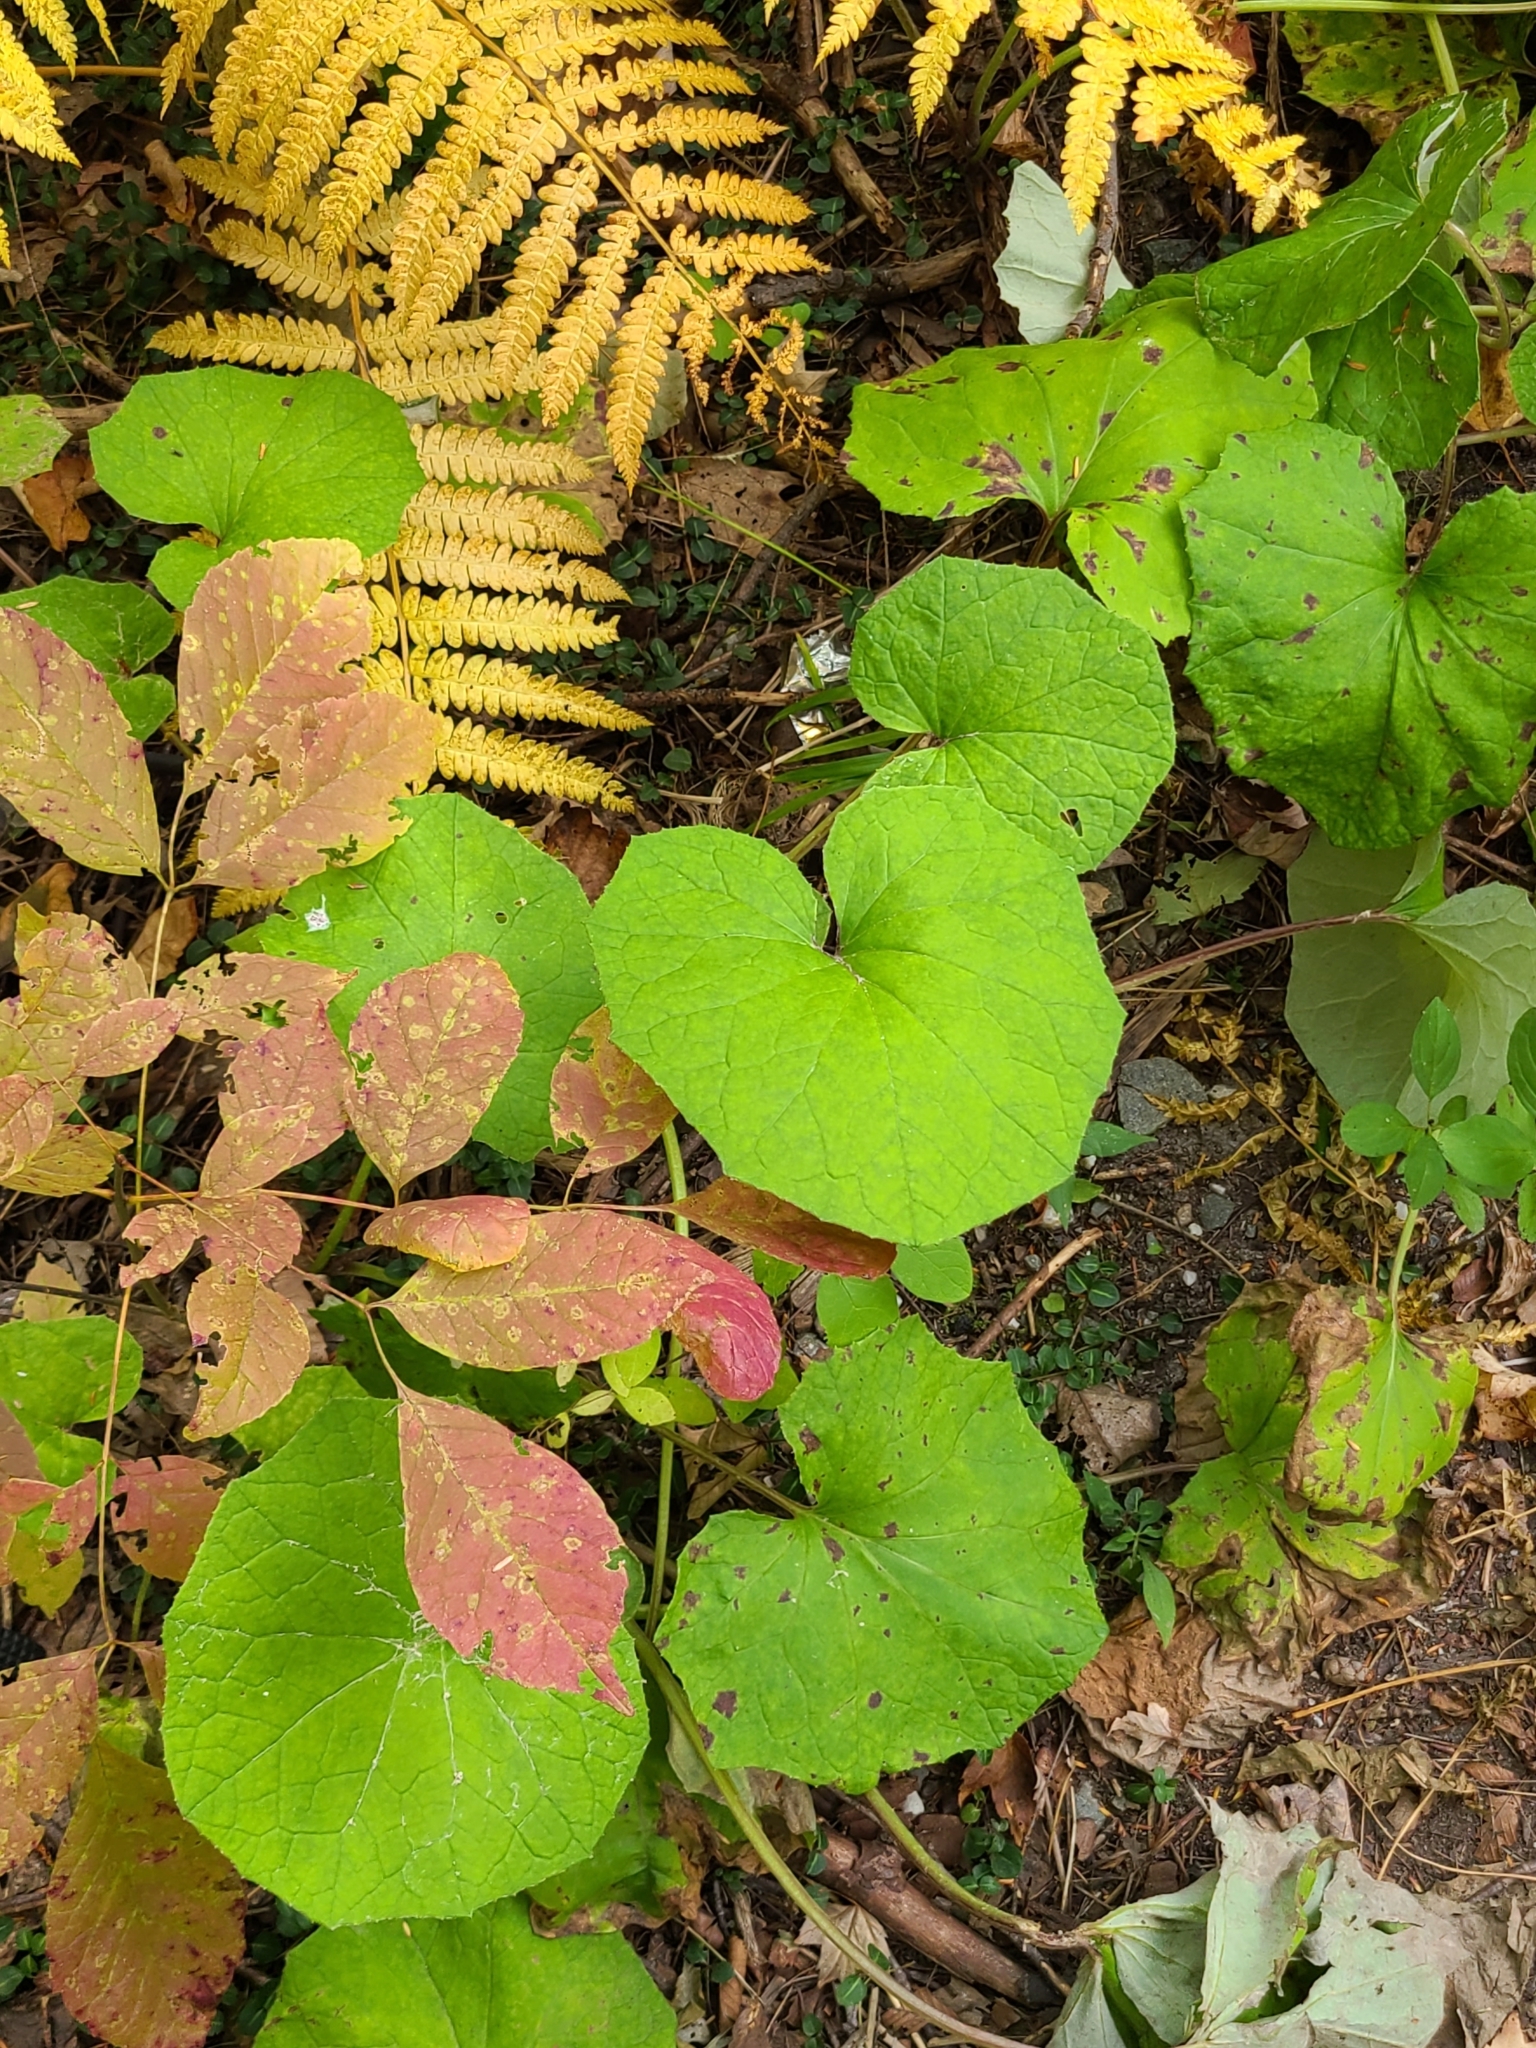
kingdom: Plantae
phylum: Tracheophyta
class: Magnoliopsida
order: Asterales
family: Asteraceae
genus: Tussilago
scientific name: Tussilago farfara
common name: Coltsfoot
